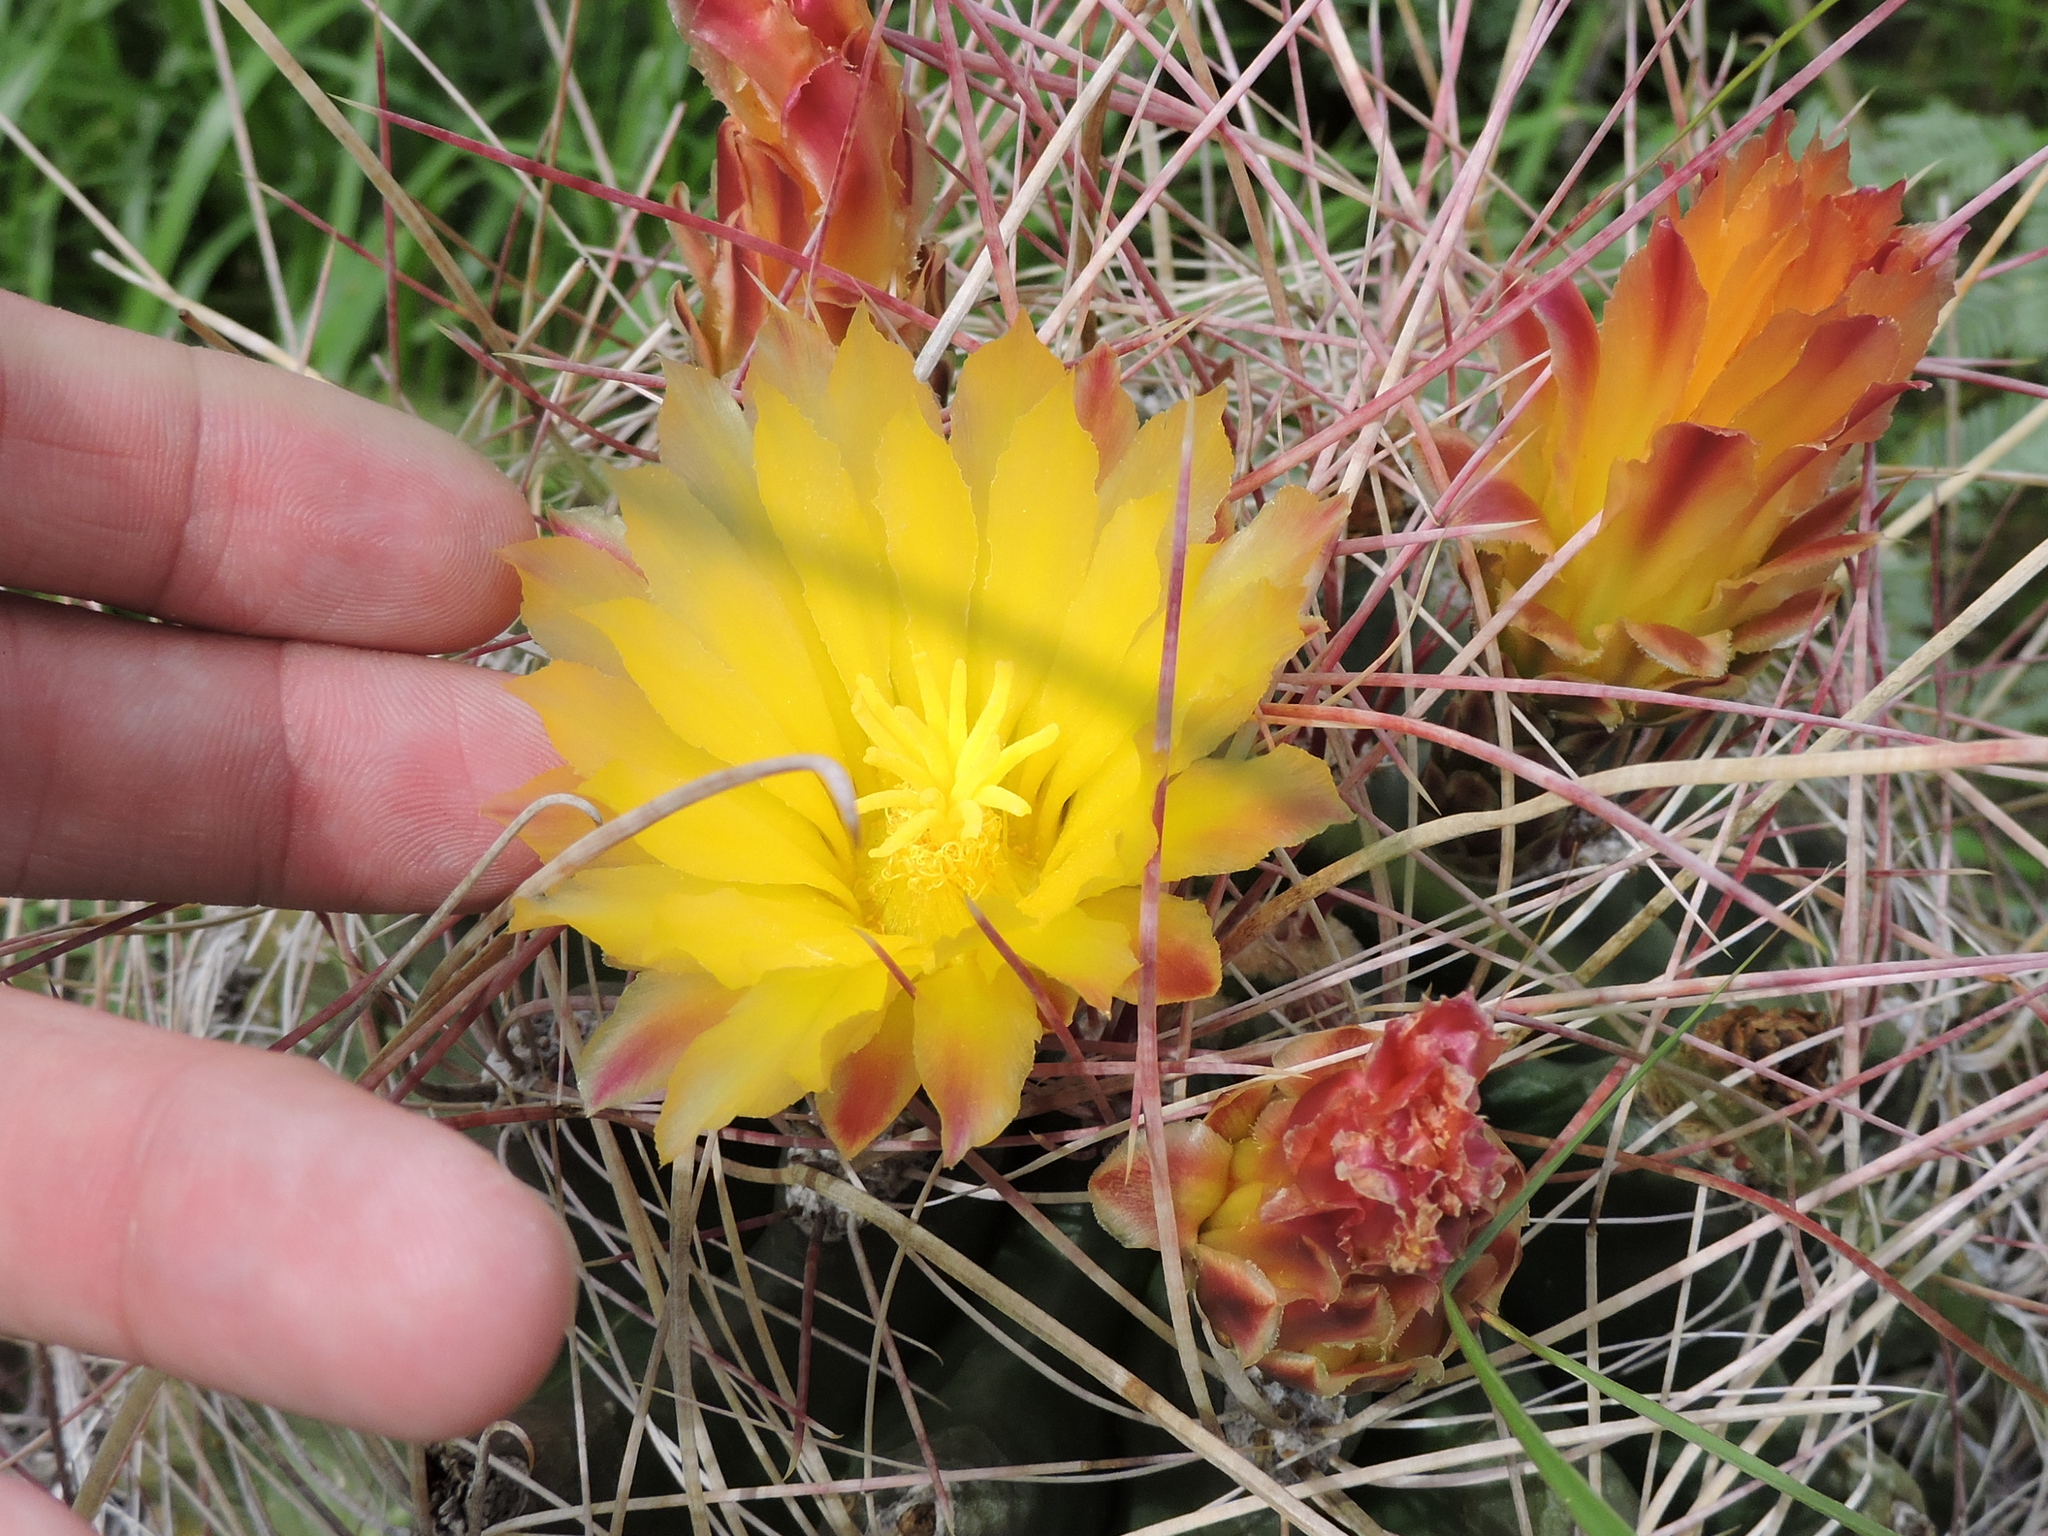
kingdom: Plantae
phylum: Tracheophyta
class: Magnoliopsida
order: Caryophyllales
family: Cactaceae
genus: Bisnaga
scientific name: Bisnaga hamatacantha
